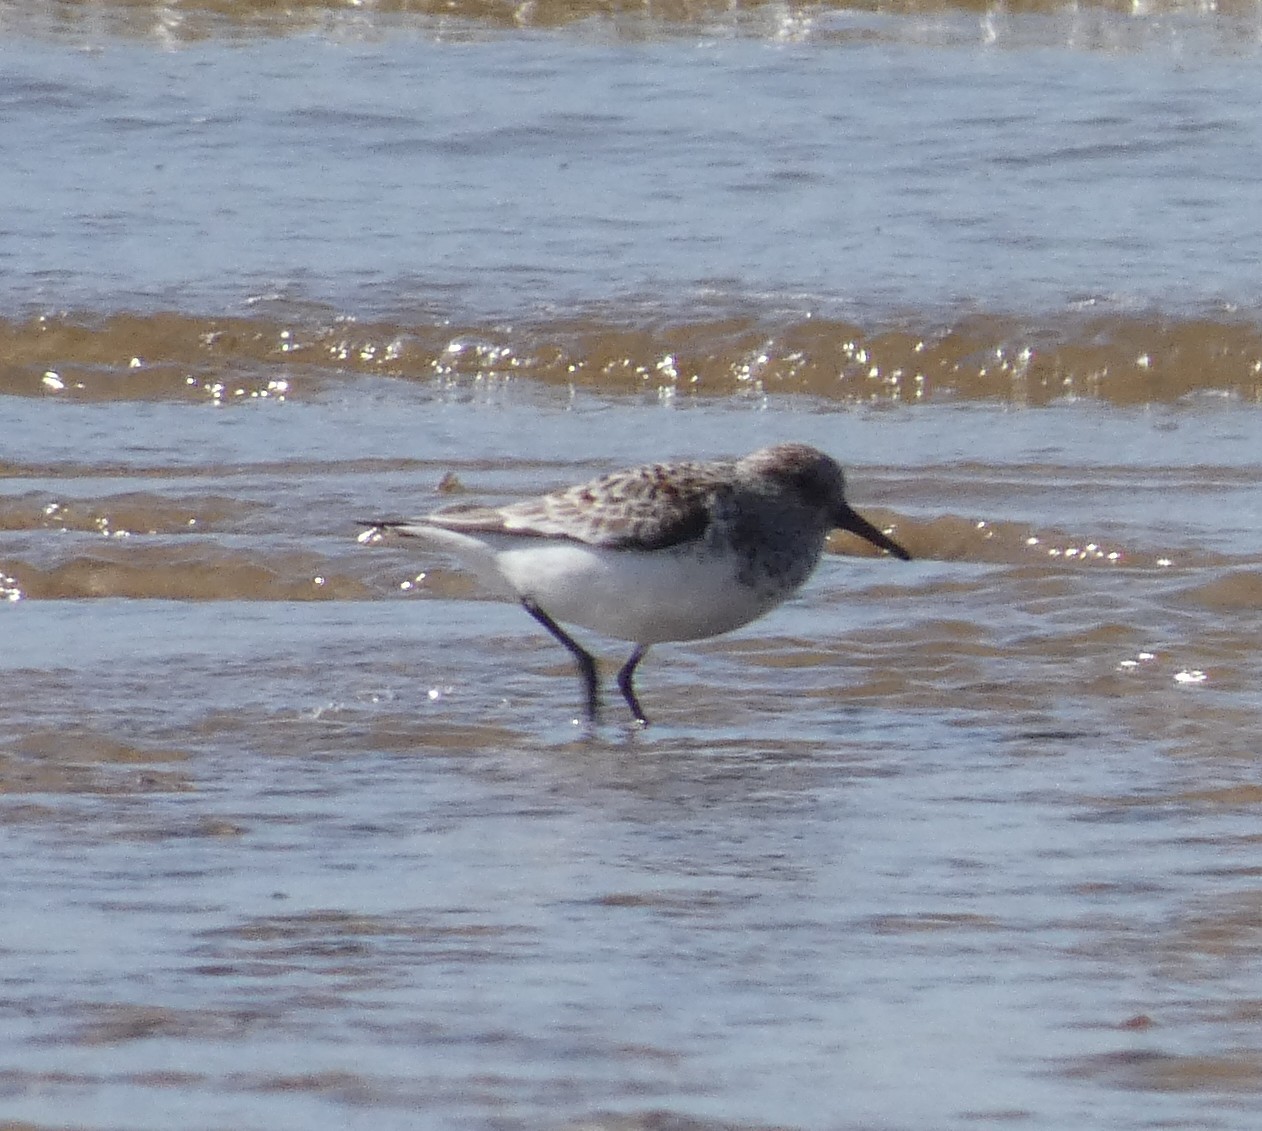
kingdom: Animalia
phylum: Chordata
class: Aves
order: Charadriiformes
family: Scolopacidae
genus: Calidris
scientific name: Calidris alba
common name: Sanderling
